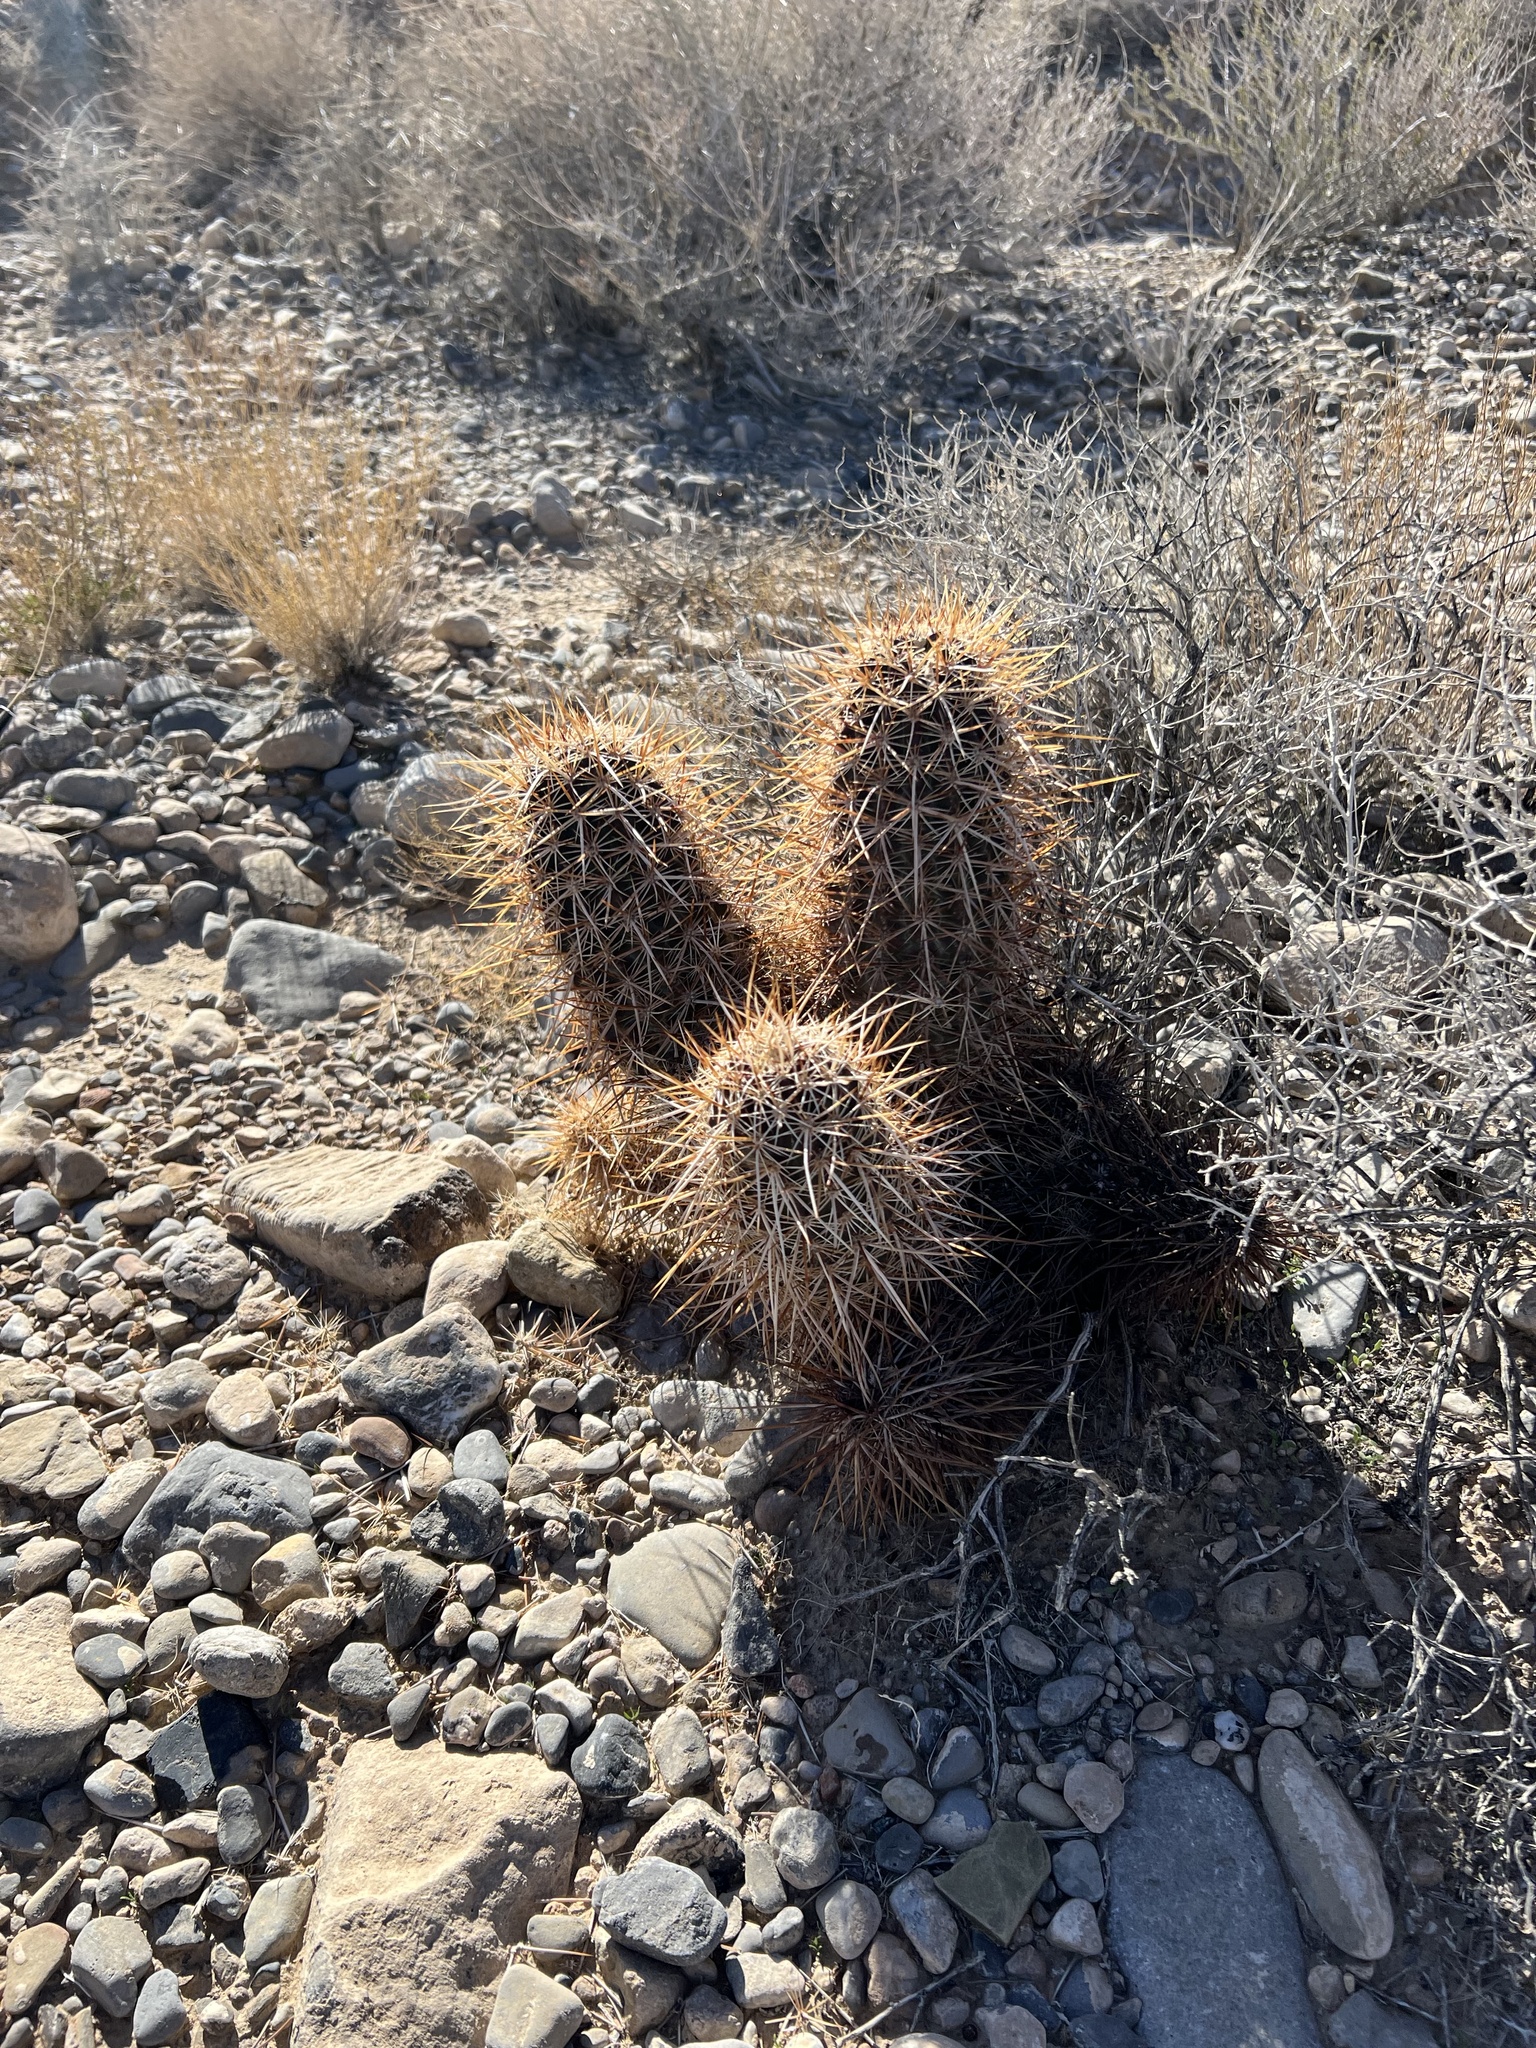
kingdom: Plantae
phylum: Tracheophyta
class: Magnoliopsida
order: Caryophyllales
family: Cactaceae
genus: Echinocereus
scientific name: Echinocereus engelmannii
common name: Engelmann's hedgehog cactus
